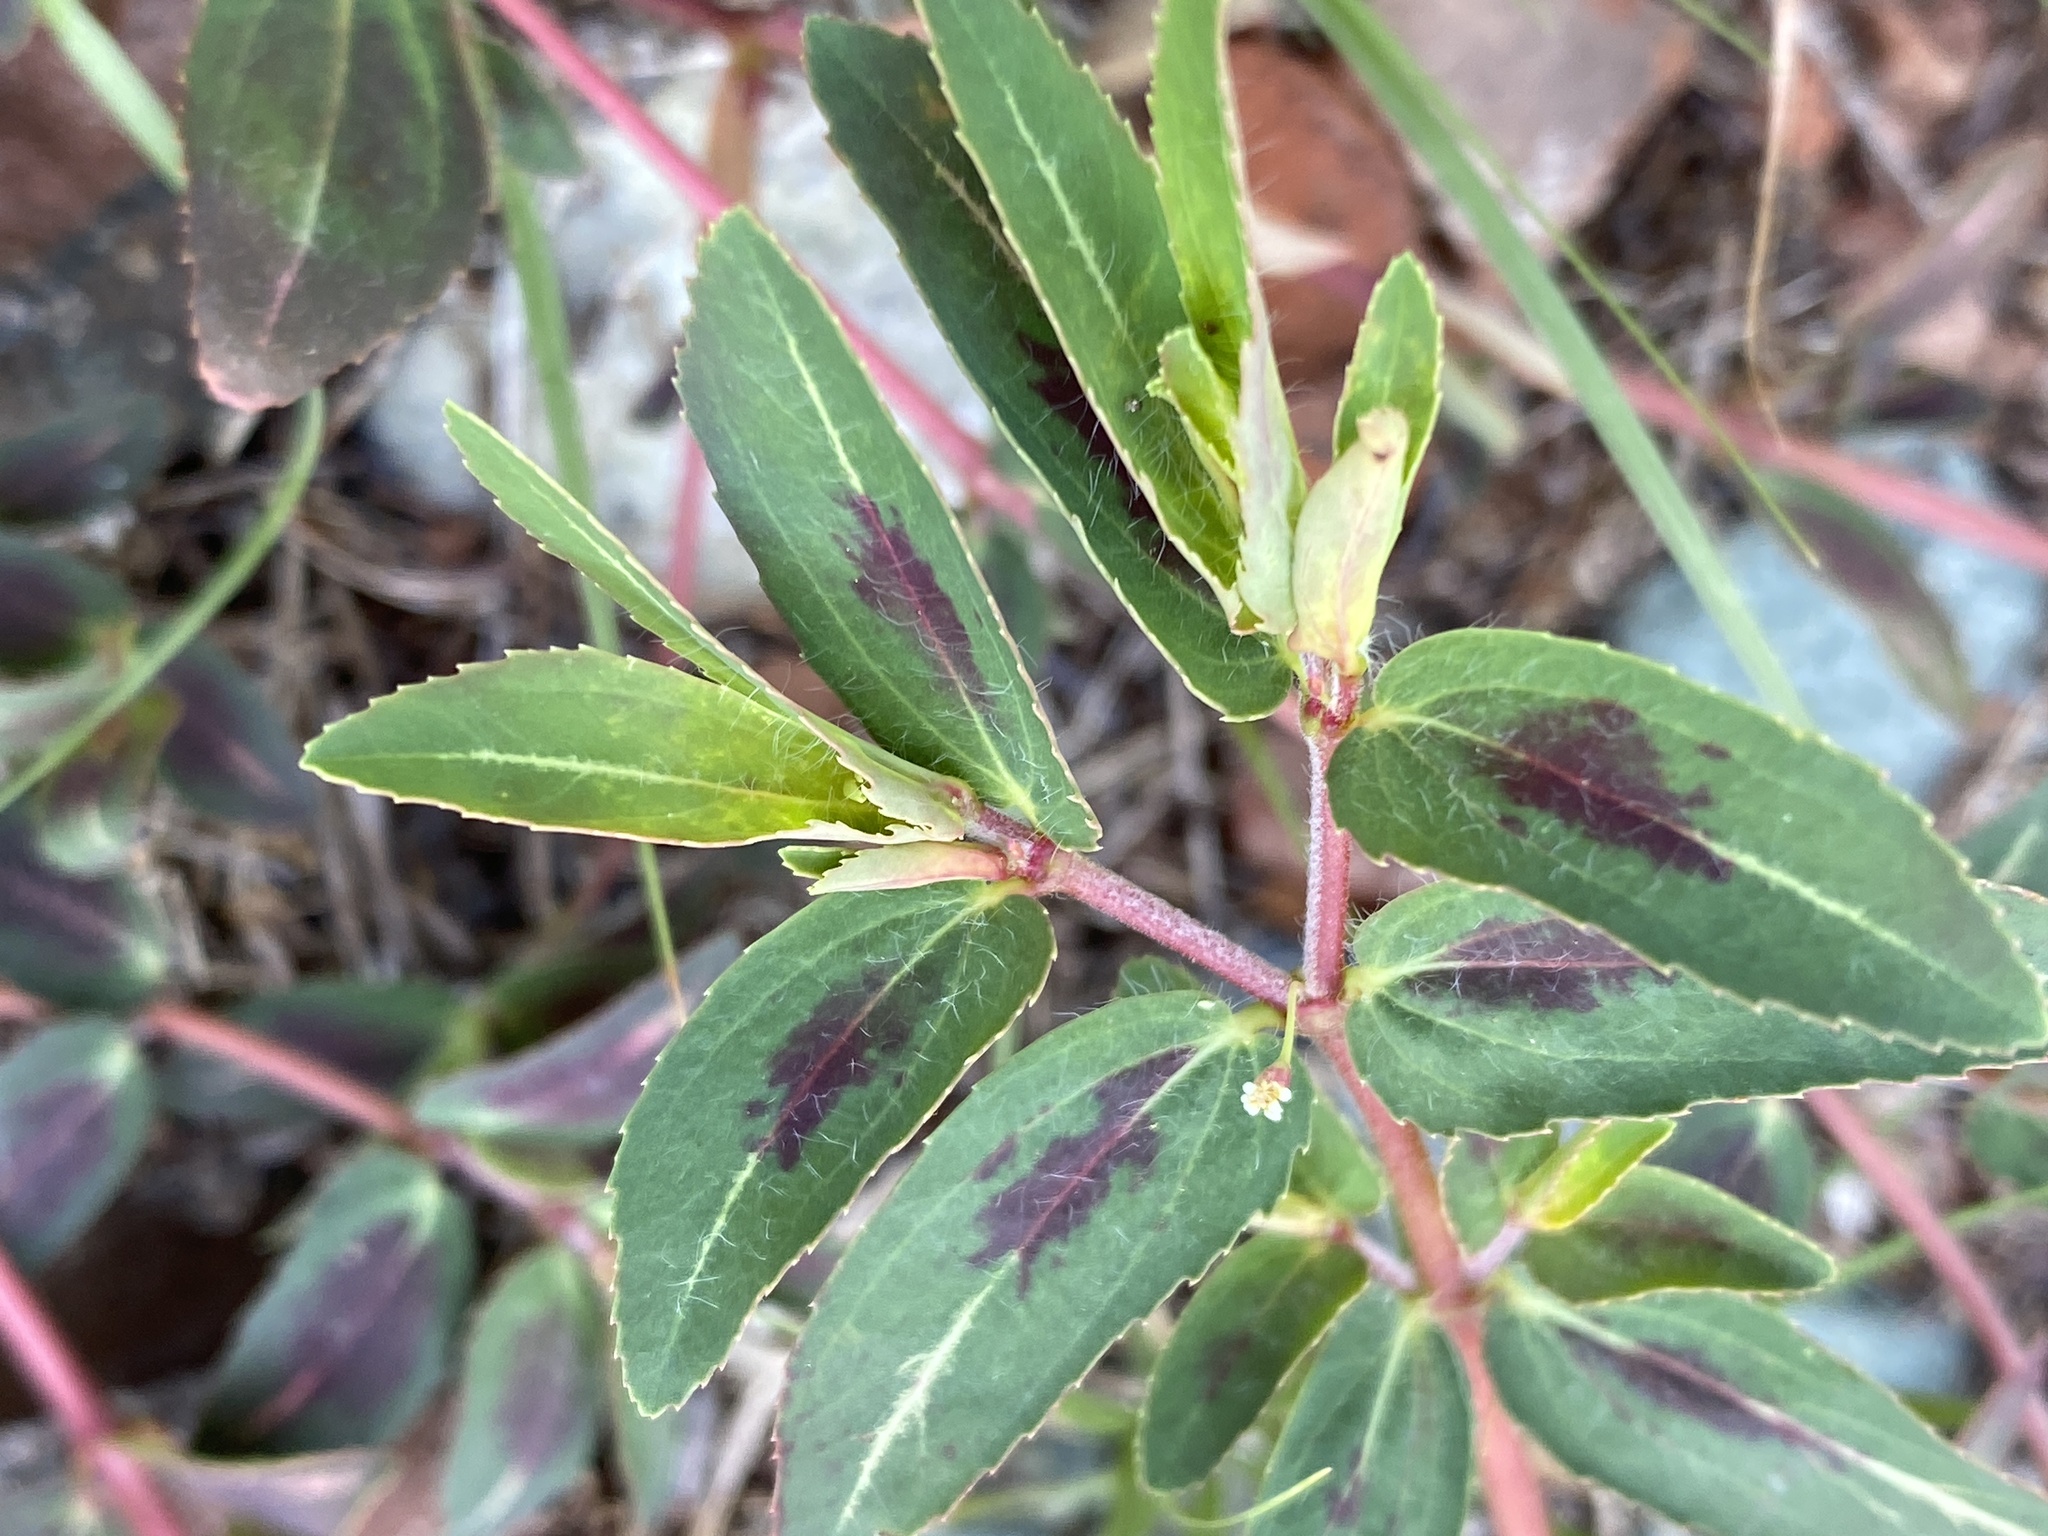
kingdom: Plantae
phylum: Tracheophyta
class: Magnoliopsida
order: Malpighiales
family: Euphorbiaceae
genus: Euphorbia
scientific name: Euphorbia nutans
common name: Eyebane
